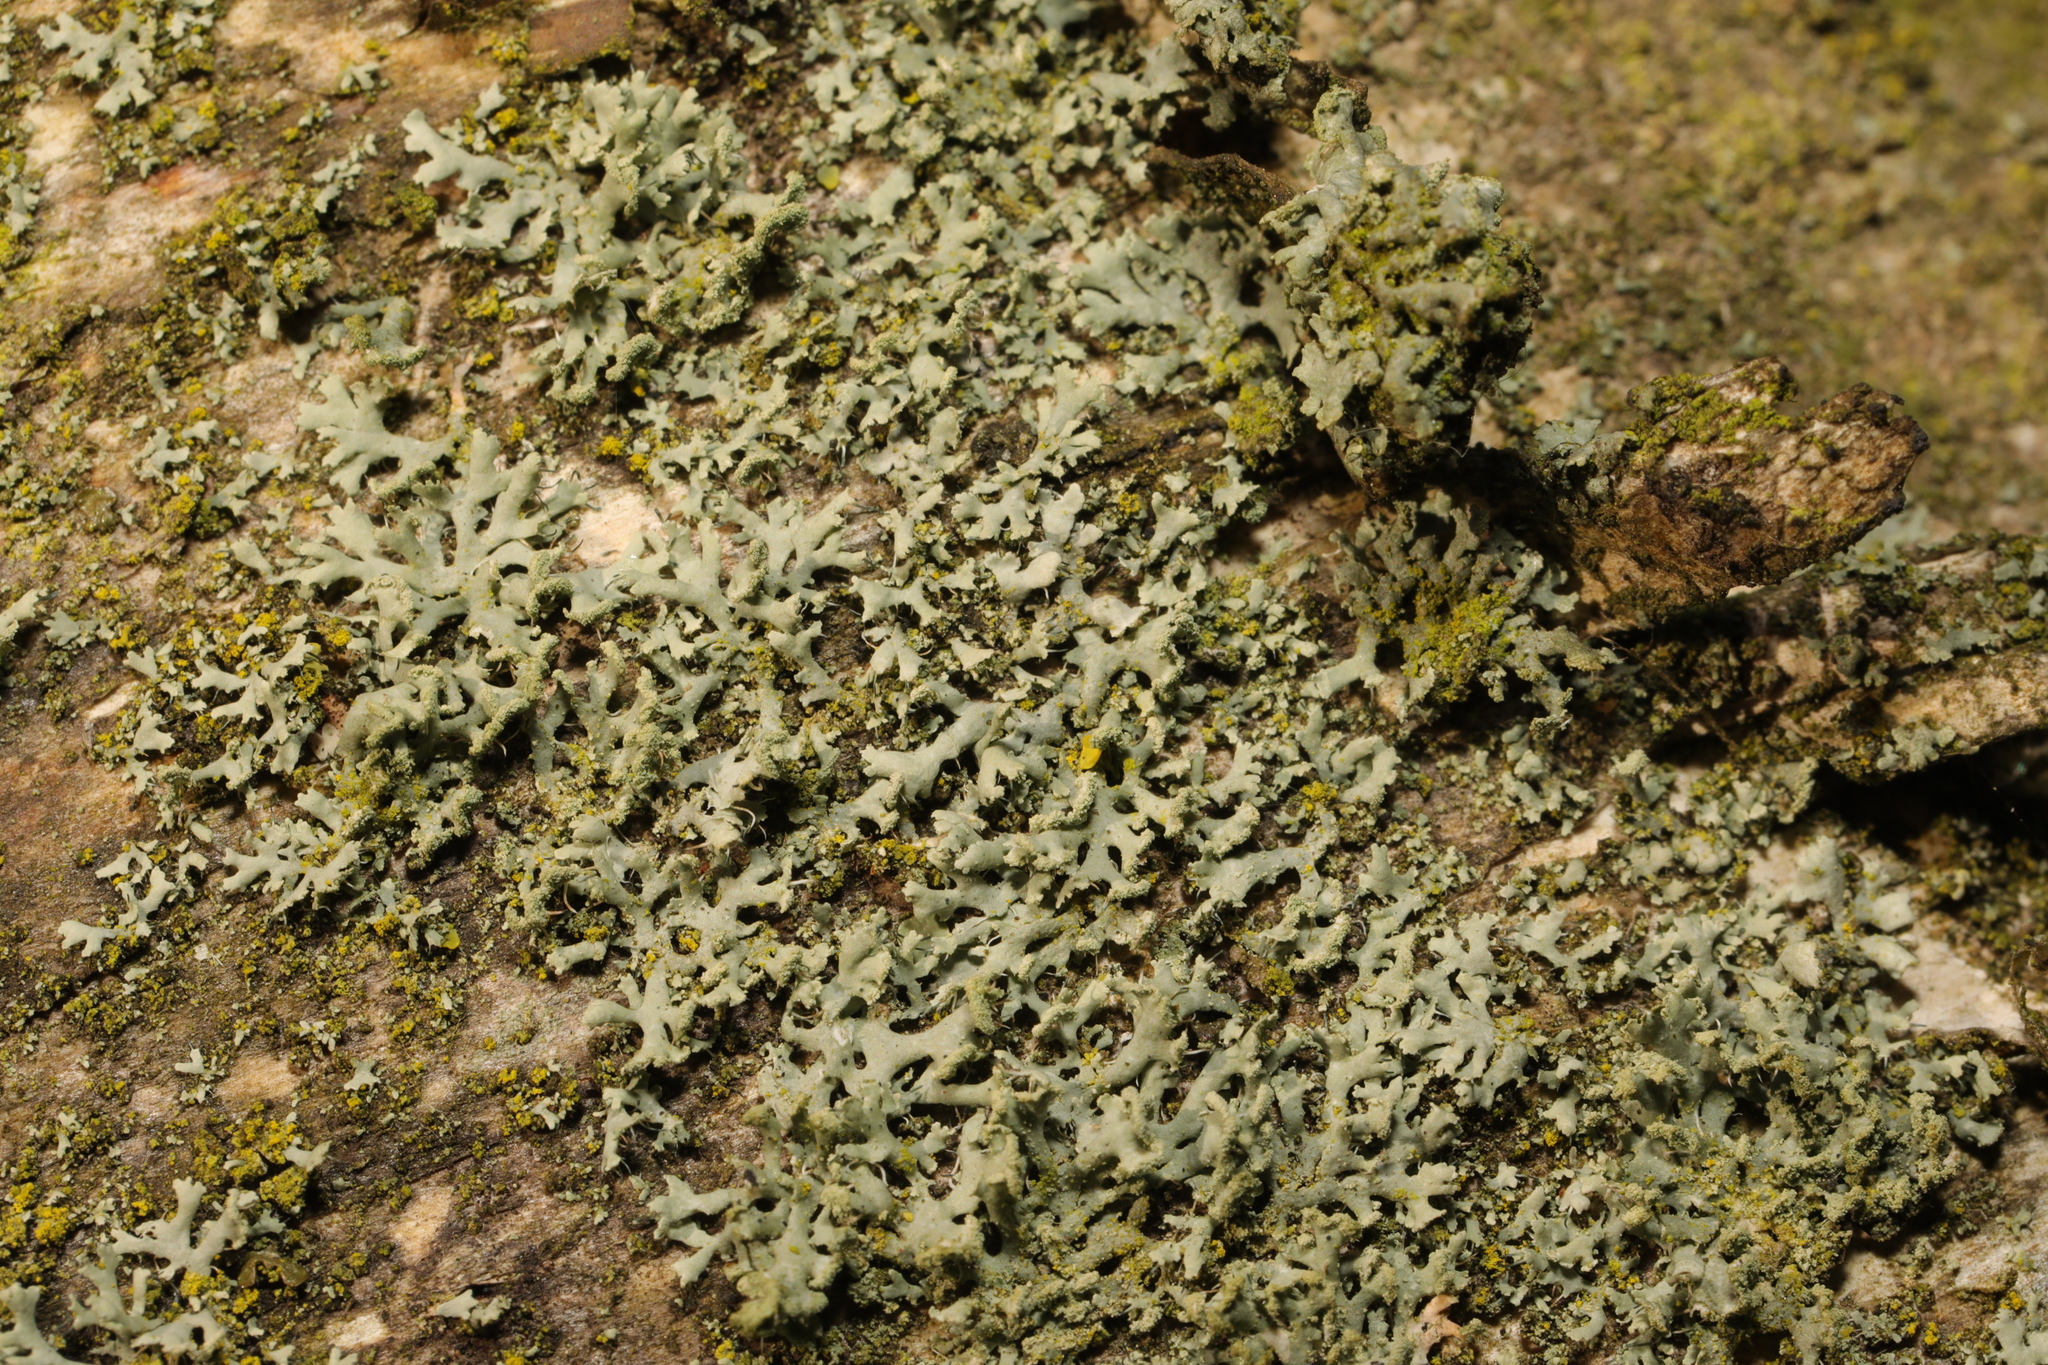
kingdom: Fungi
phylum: Ascomycota
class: Lecanoromycetes
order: Caliciales
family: Physciaceae
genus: Physcia
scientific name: Physcia tenella
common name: Fringed rosette lichen
